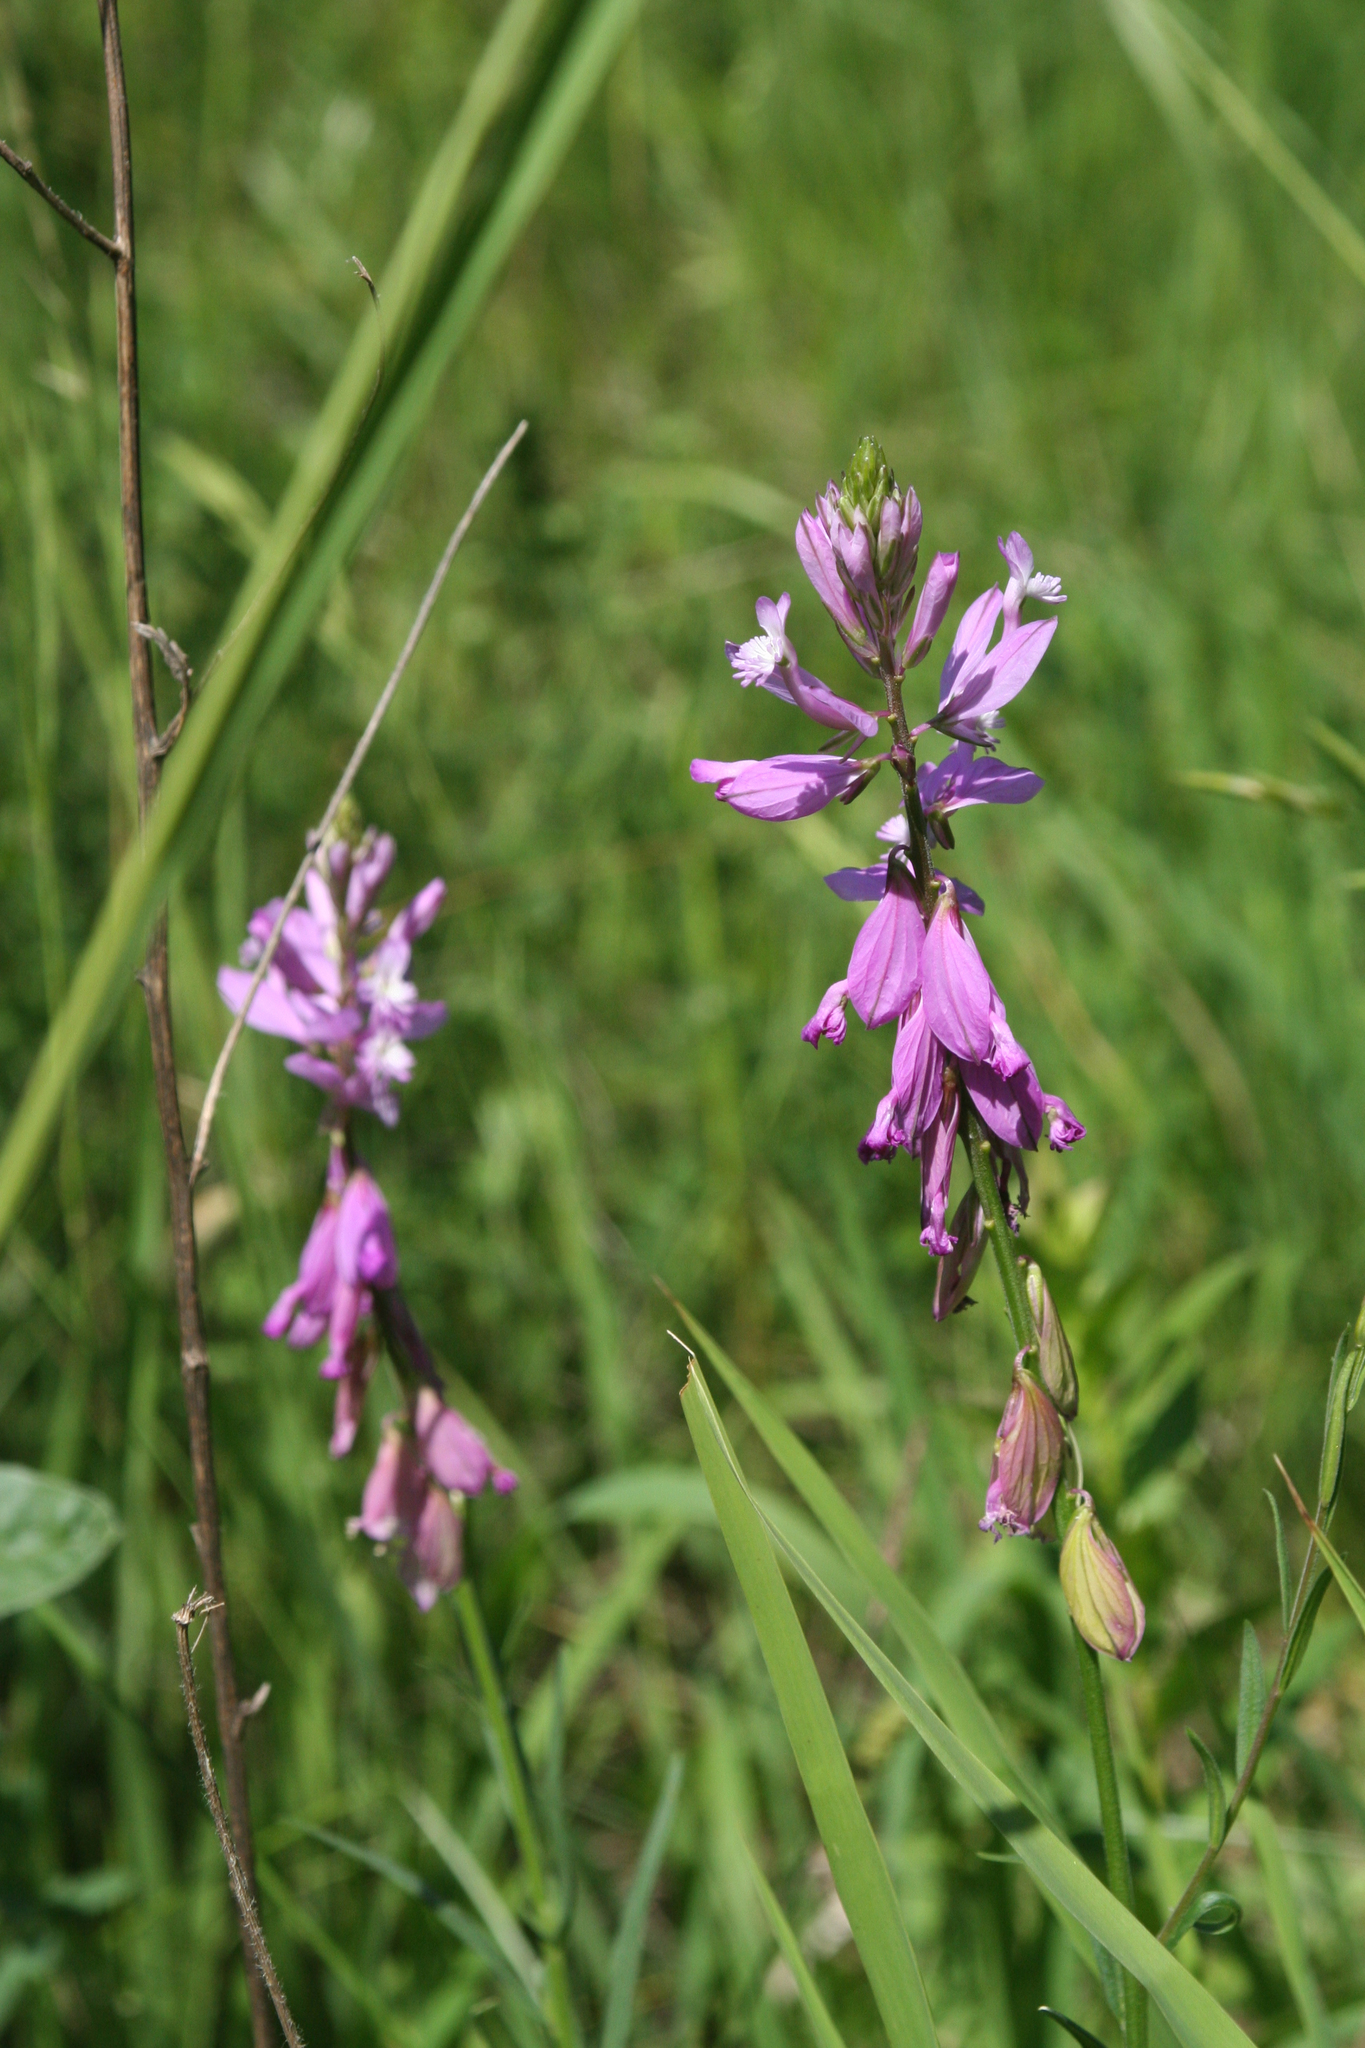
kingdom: Plantae
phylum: Tracheophyta
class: Magnoliopsida
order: Fabales
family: Polygalaceae
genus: Polygala
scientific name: Polygala major
